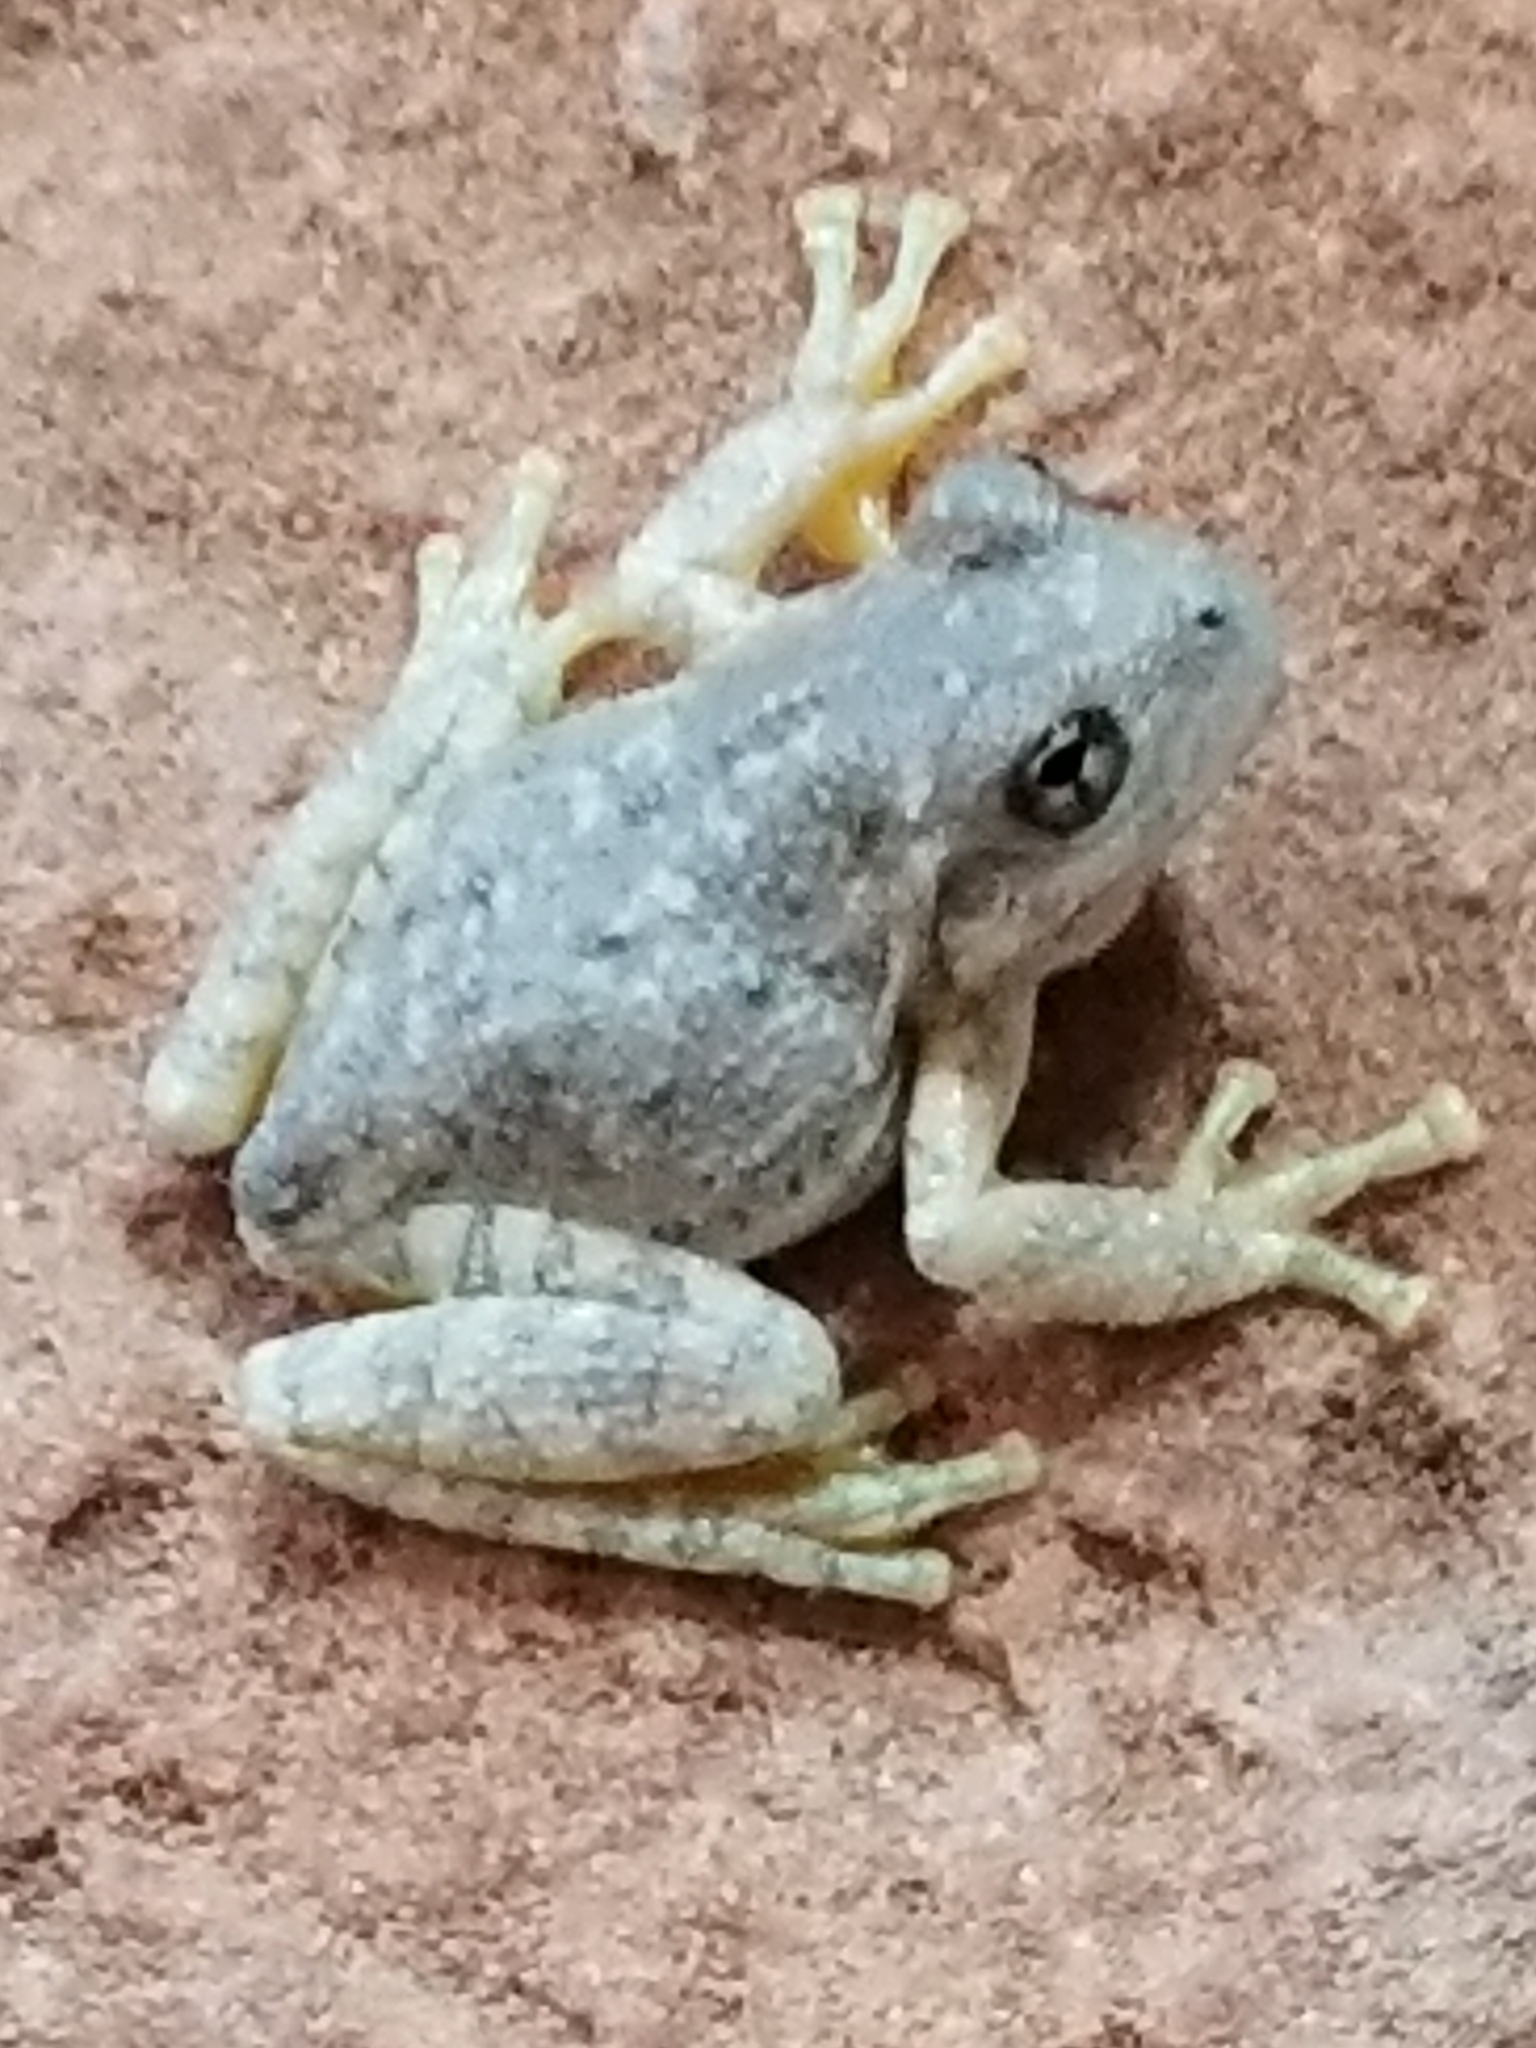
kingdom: Animalia
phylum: Chordata
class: Amphibia
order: Anura
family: Hylidae
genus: Dryophytes
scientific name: Dryophytes arenicolor
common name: Canyon treefrog
